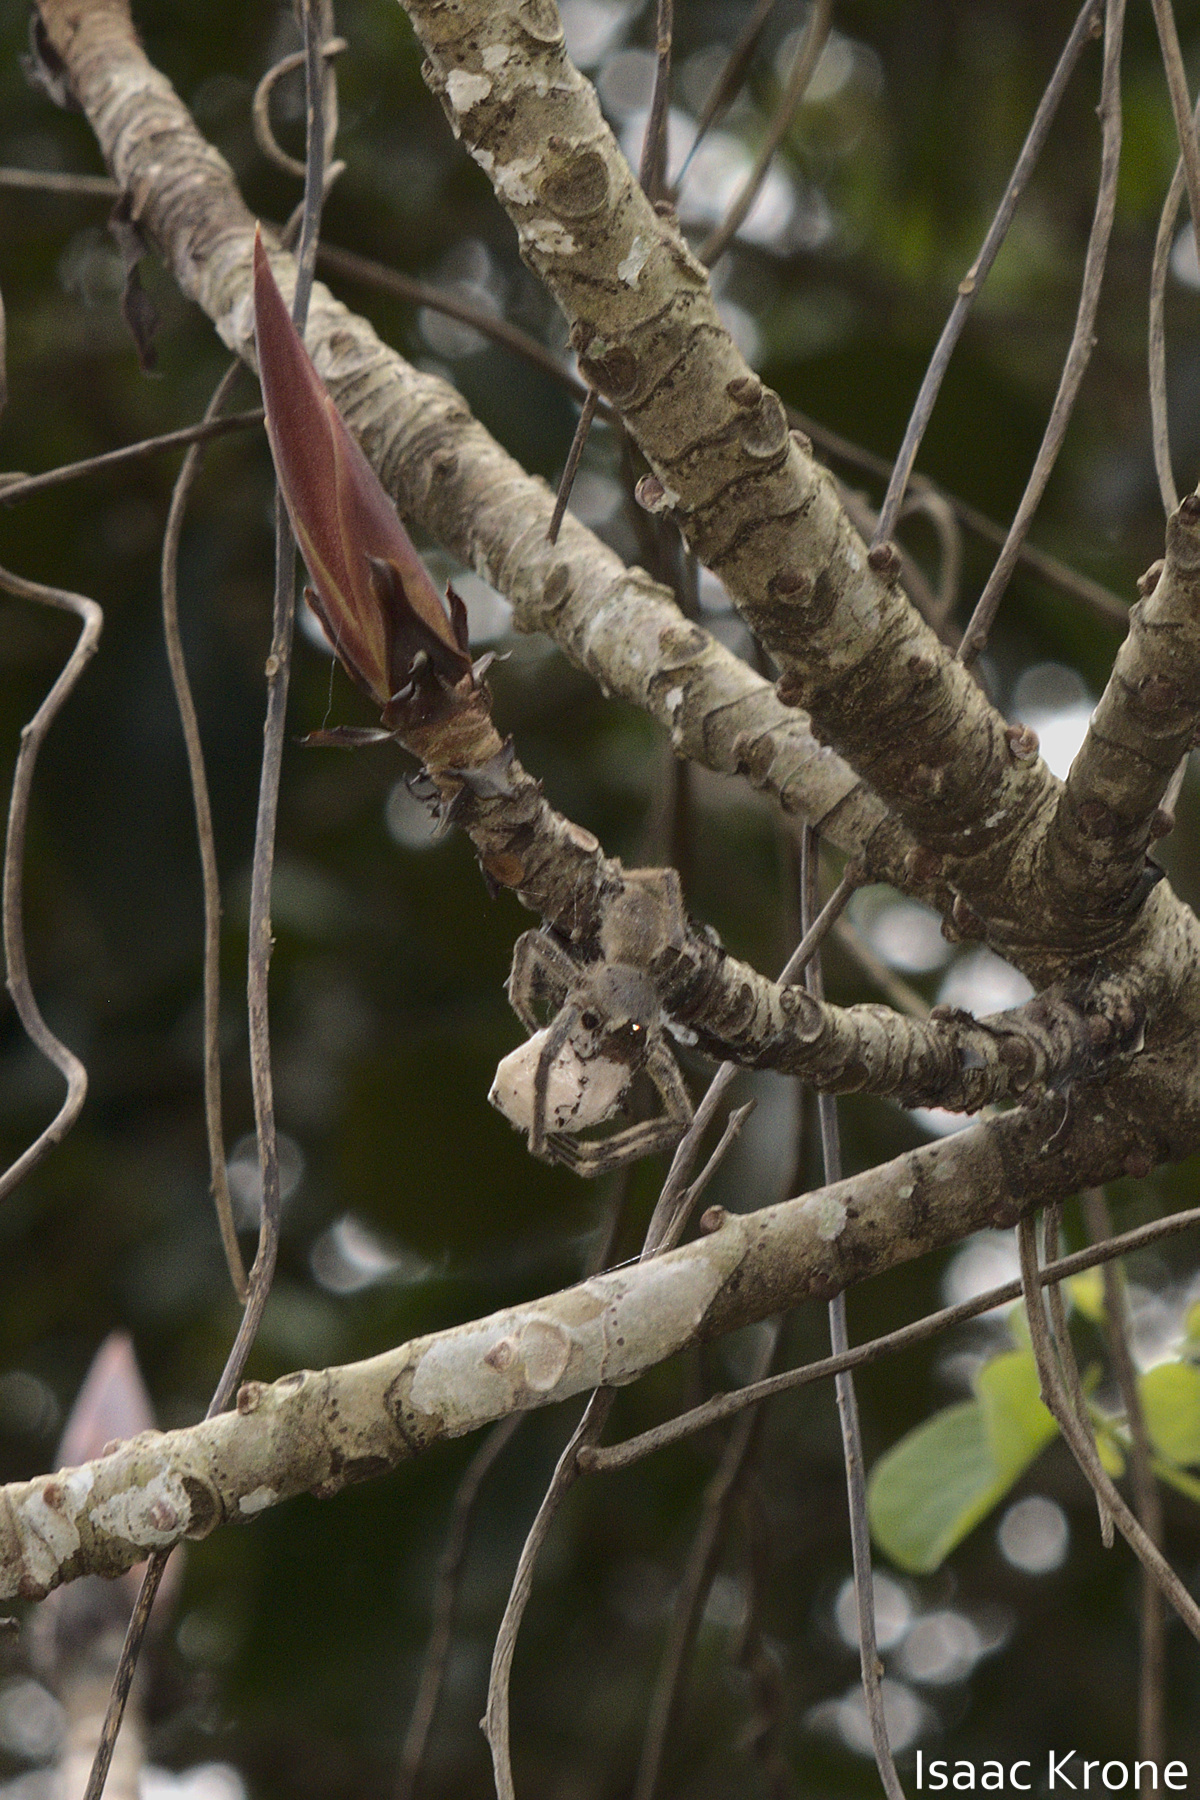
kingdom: Animalia
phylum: Arthropoda
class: Arachnida
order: Araneae
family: Ctenidae
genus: Phoneutria
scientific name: Phoneutria boliviensis
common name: Wandering spiders
